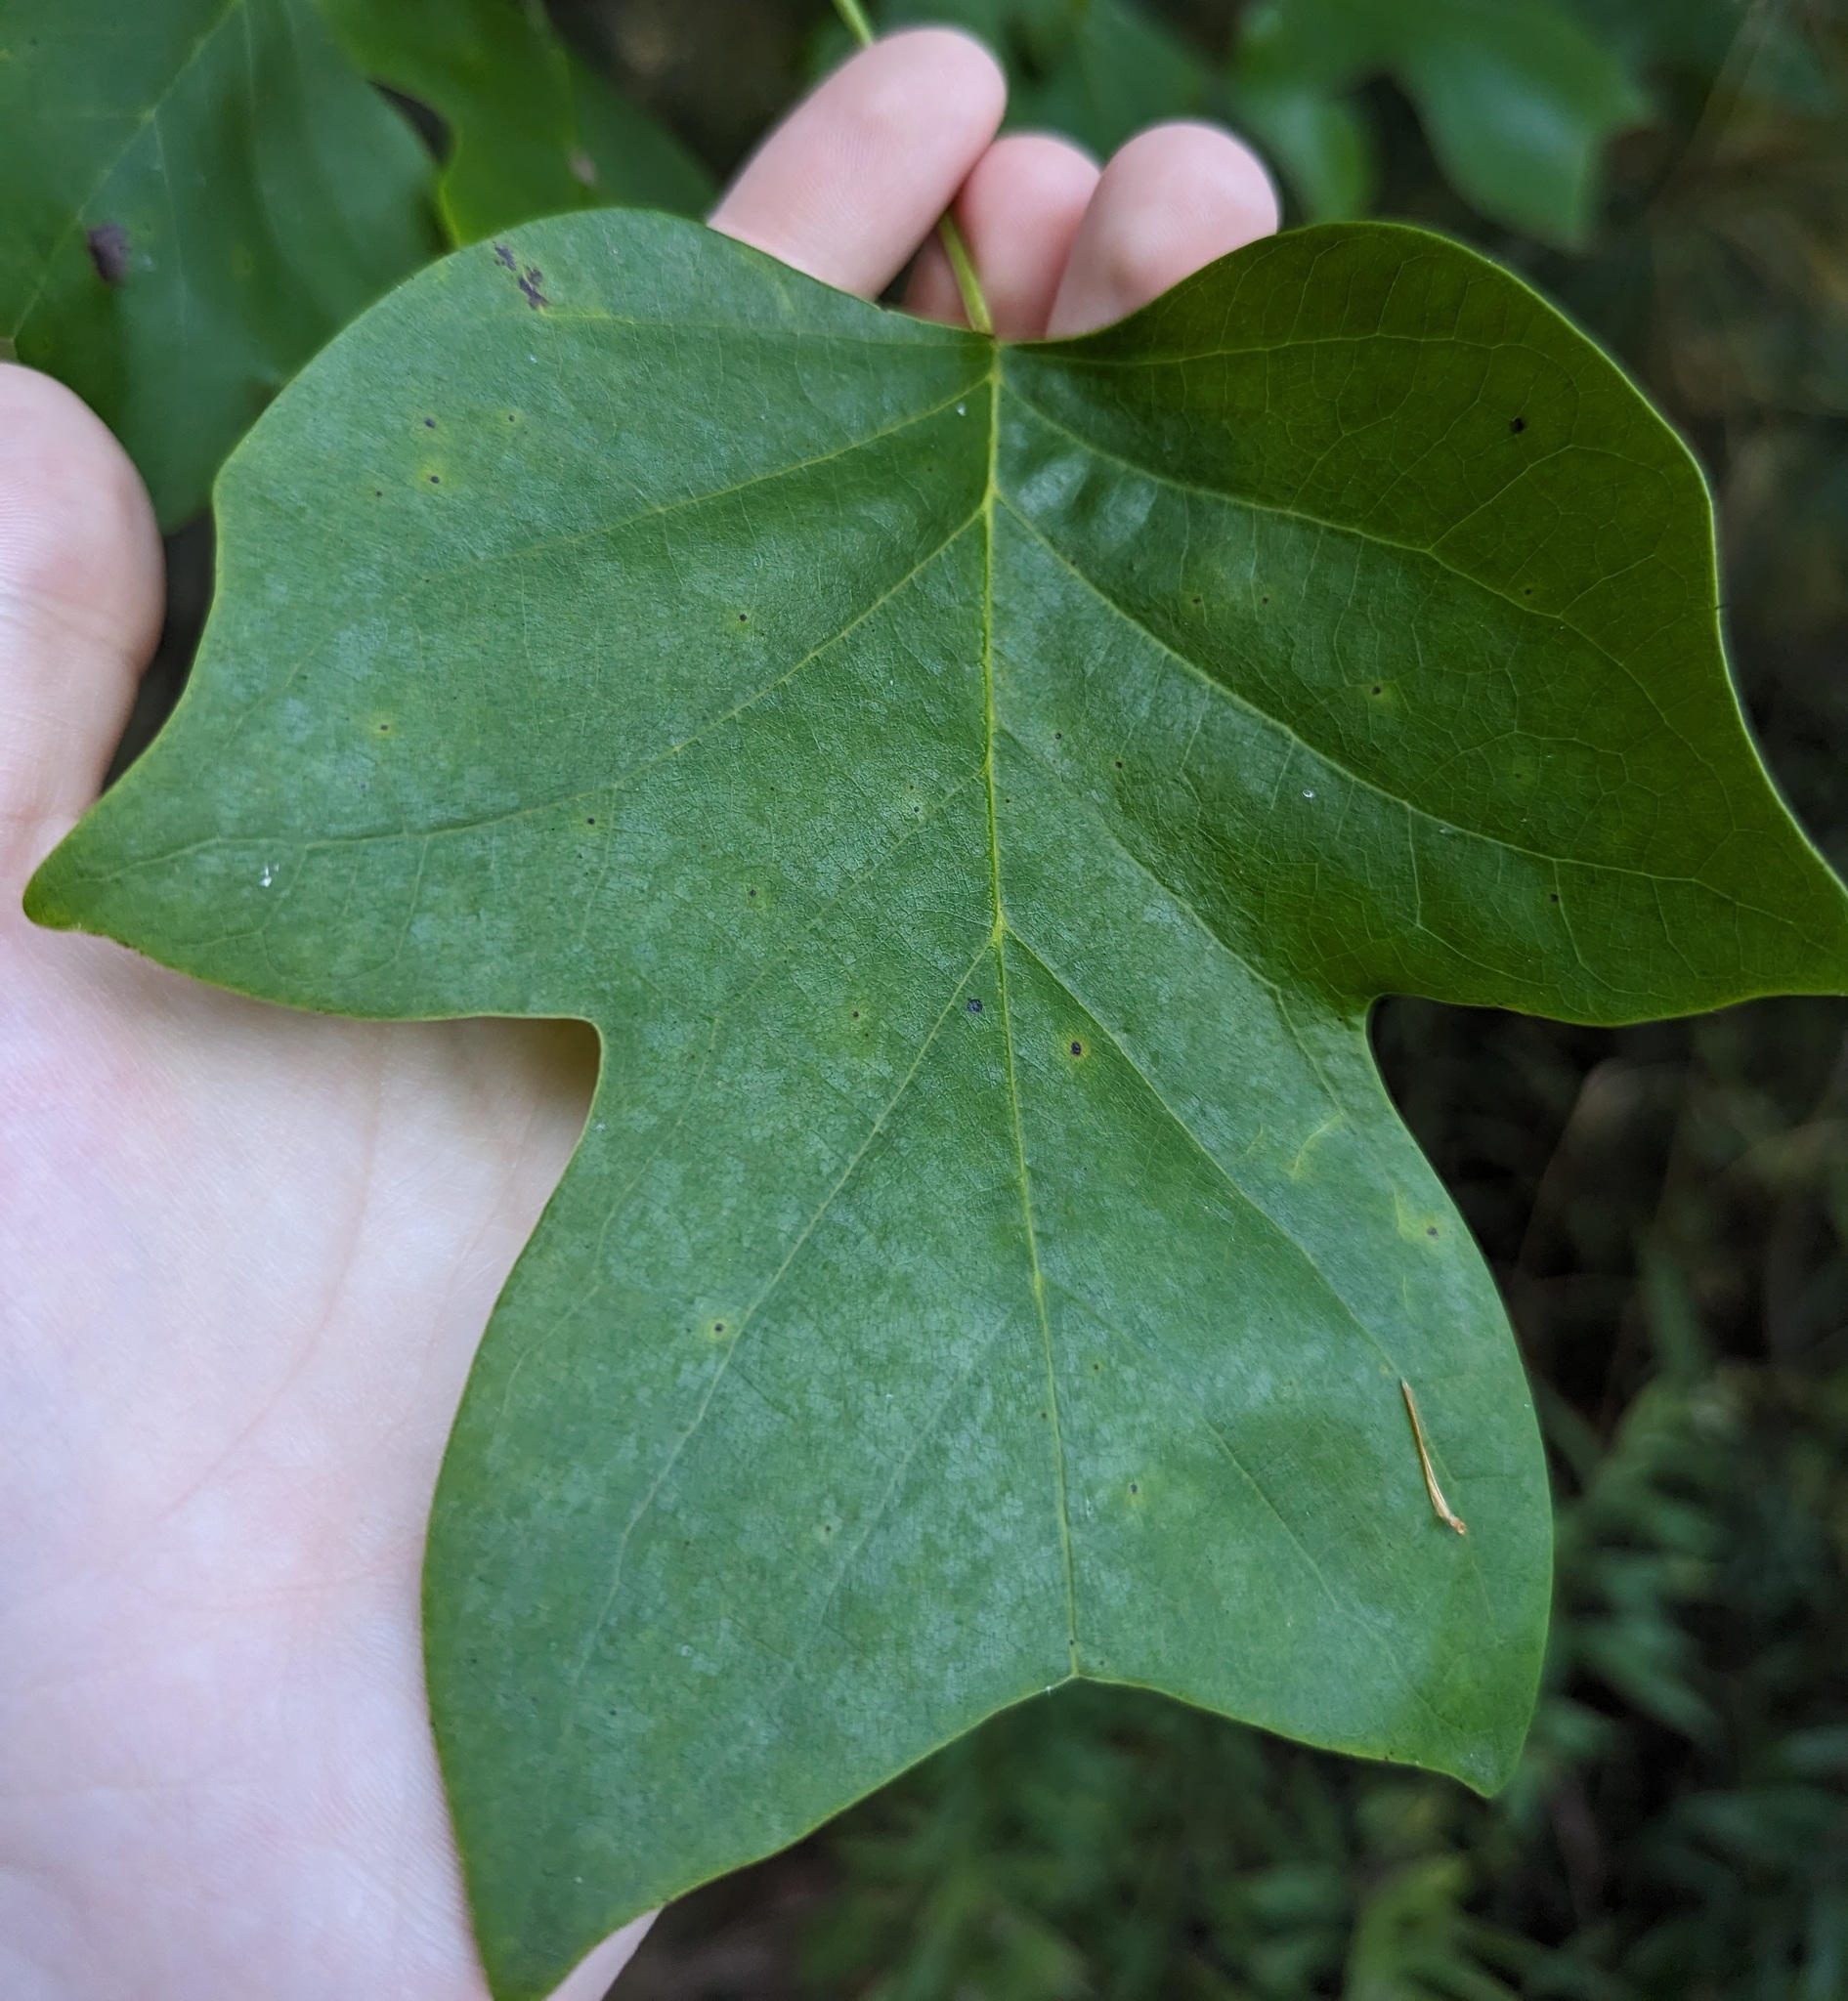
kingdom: Plantae
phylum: Tracheophyta
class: Magnoliopsida
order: Magnoliales
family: Magnoliaceae
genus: Liriodendron
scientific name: Liriodendron tulipifera
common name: Tulip tree
